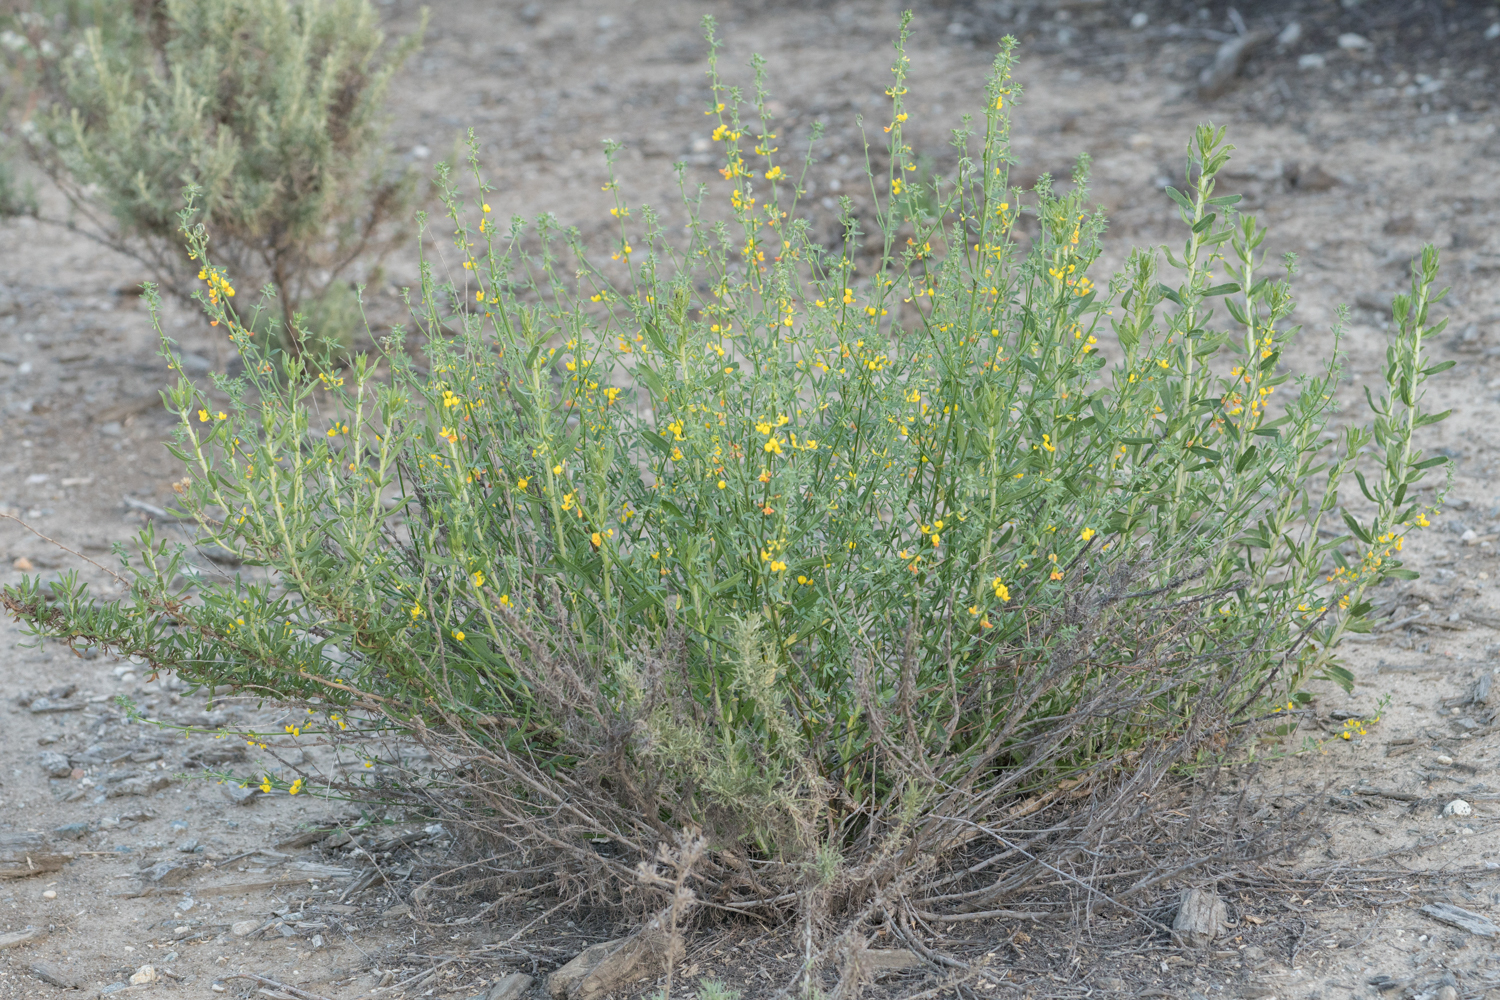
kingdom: Plantae
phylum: Tracheophyta
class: Magnoliopsida
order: Fabales
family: Fabaceae
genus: Acmispon
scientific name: Acmispon glaber
